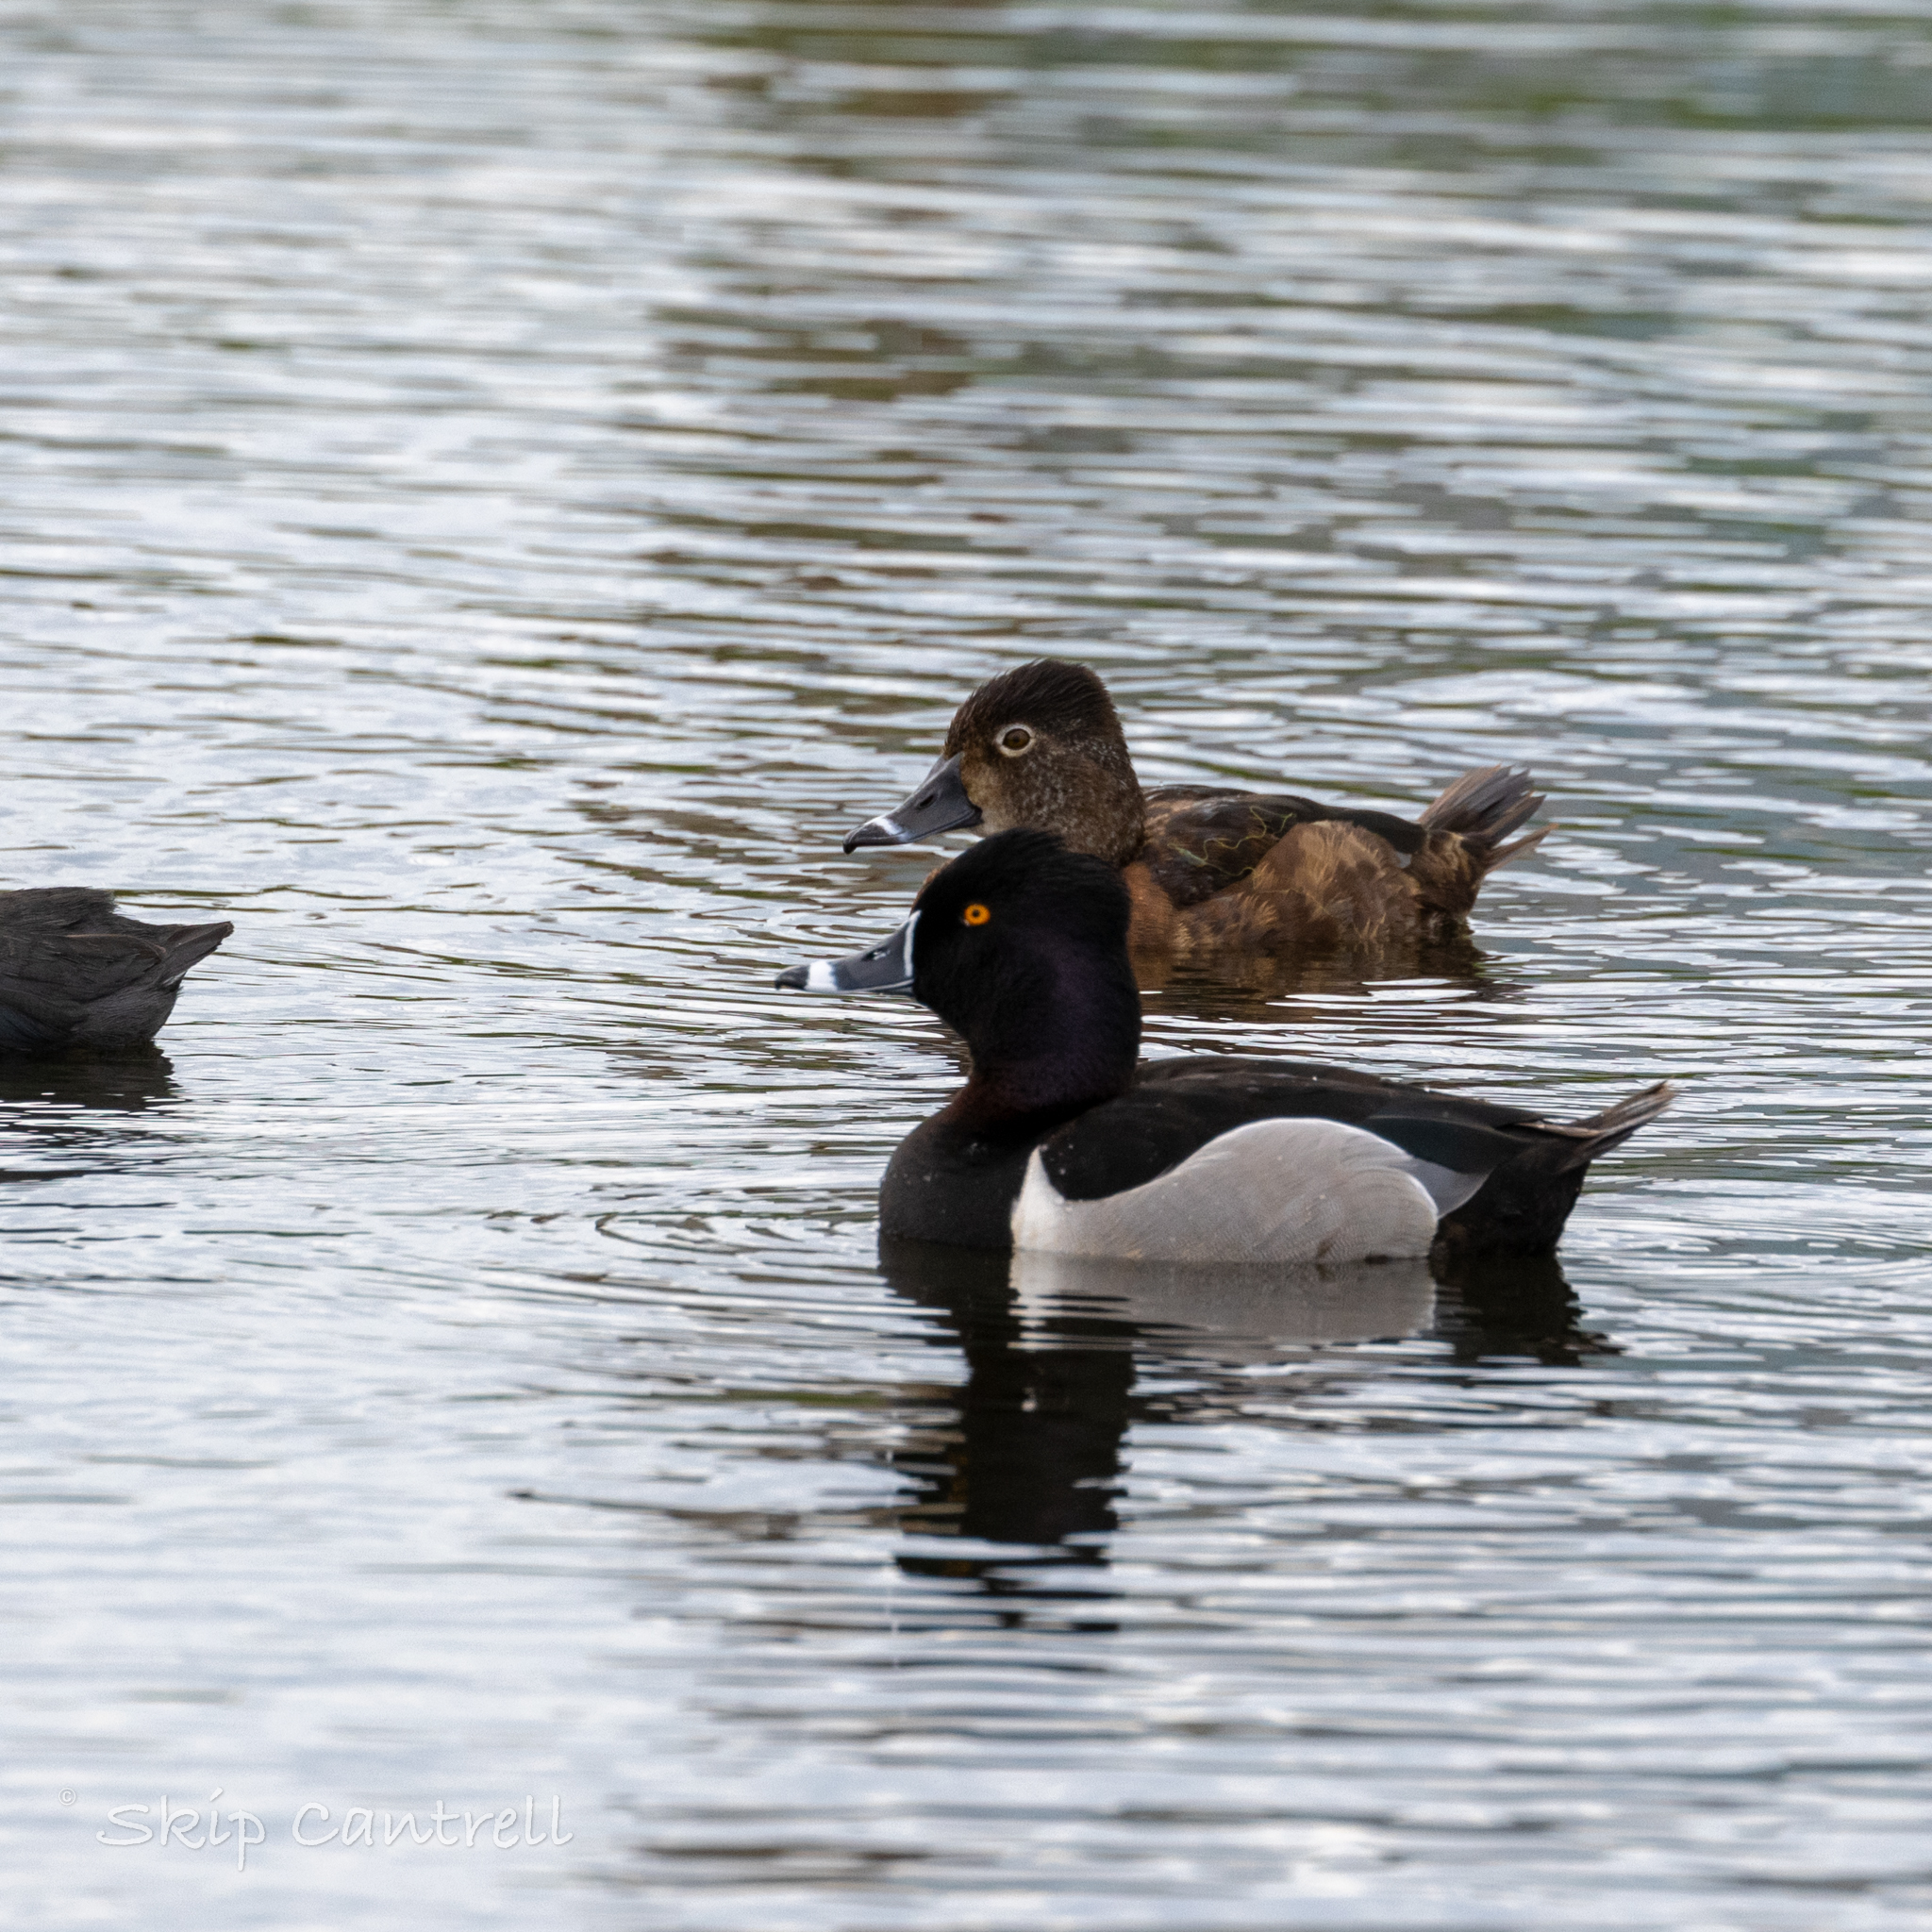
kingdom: Animalia
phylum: Chordata
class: Aves
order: Anseriformes
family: Anatidae
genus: Aythya
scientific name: Aythya collaris
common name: Ring-necked duck
